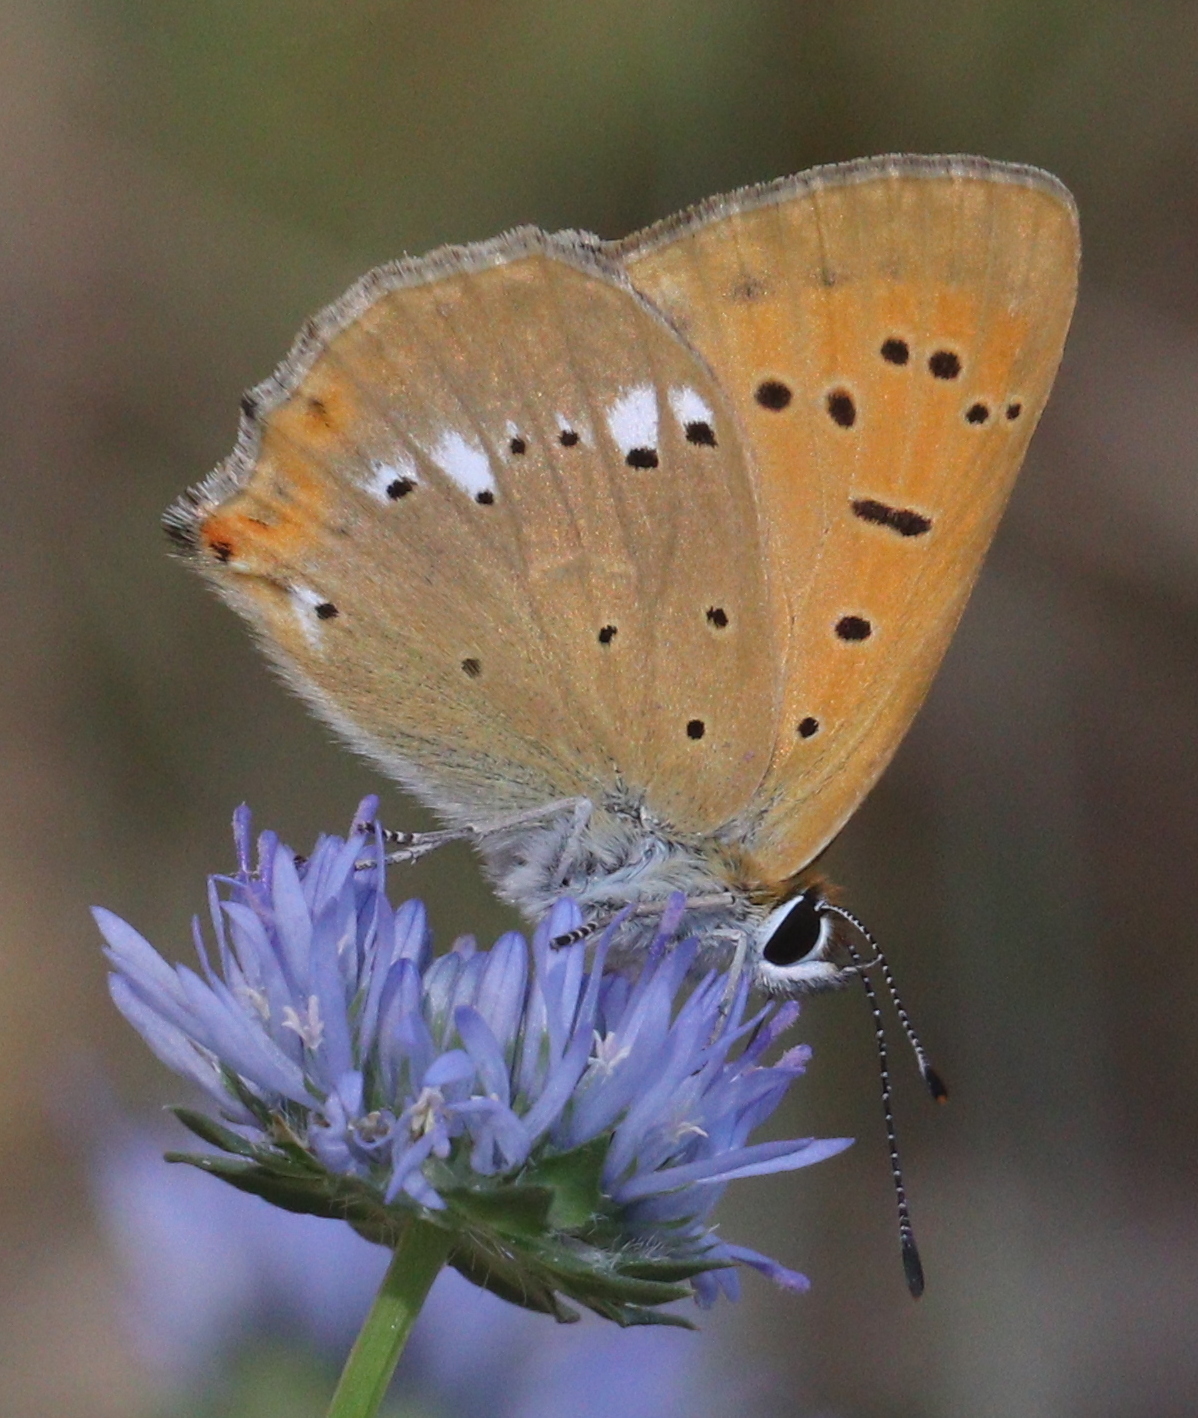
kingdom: Animalia
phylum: Arthropoda
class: Insecta
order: Lepidoptera
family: Lycaenidae
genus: Lycaena
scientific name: Lycaena virgaureae
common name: Scarce copper
